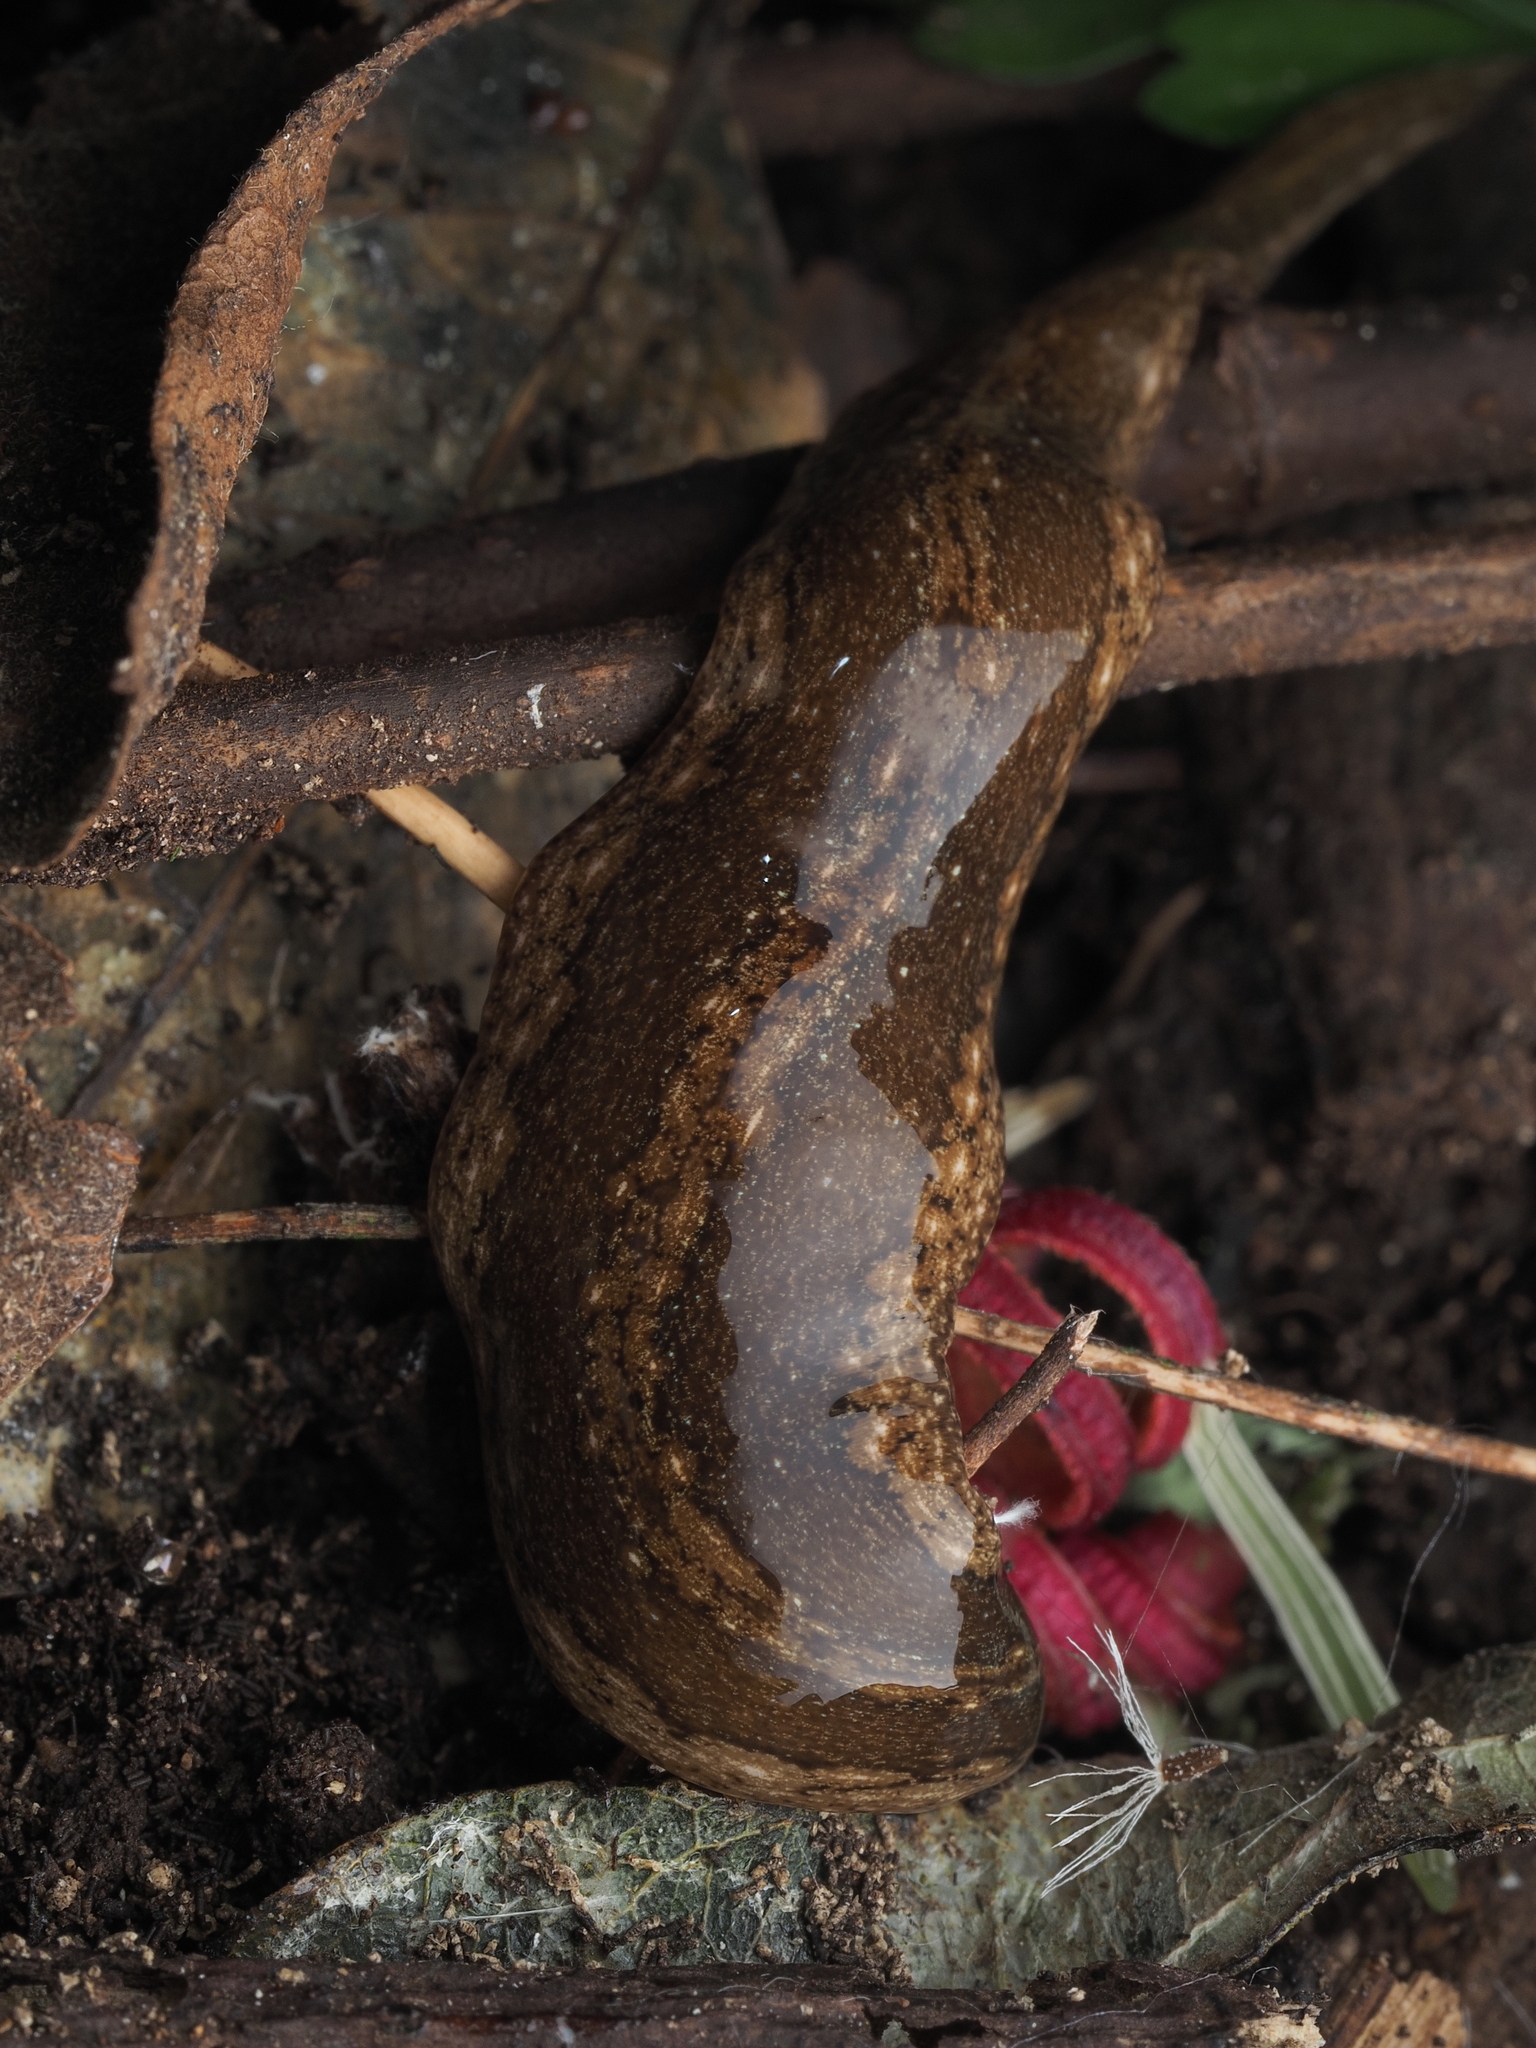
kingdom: Animalia
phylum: Platyhelminthes
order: Tricladida
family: Geoplanidae
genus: Newzealandia
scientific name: Newzealandia graffii
